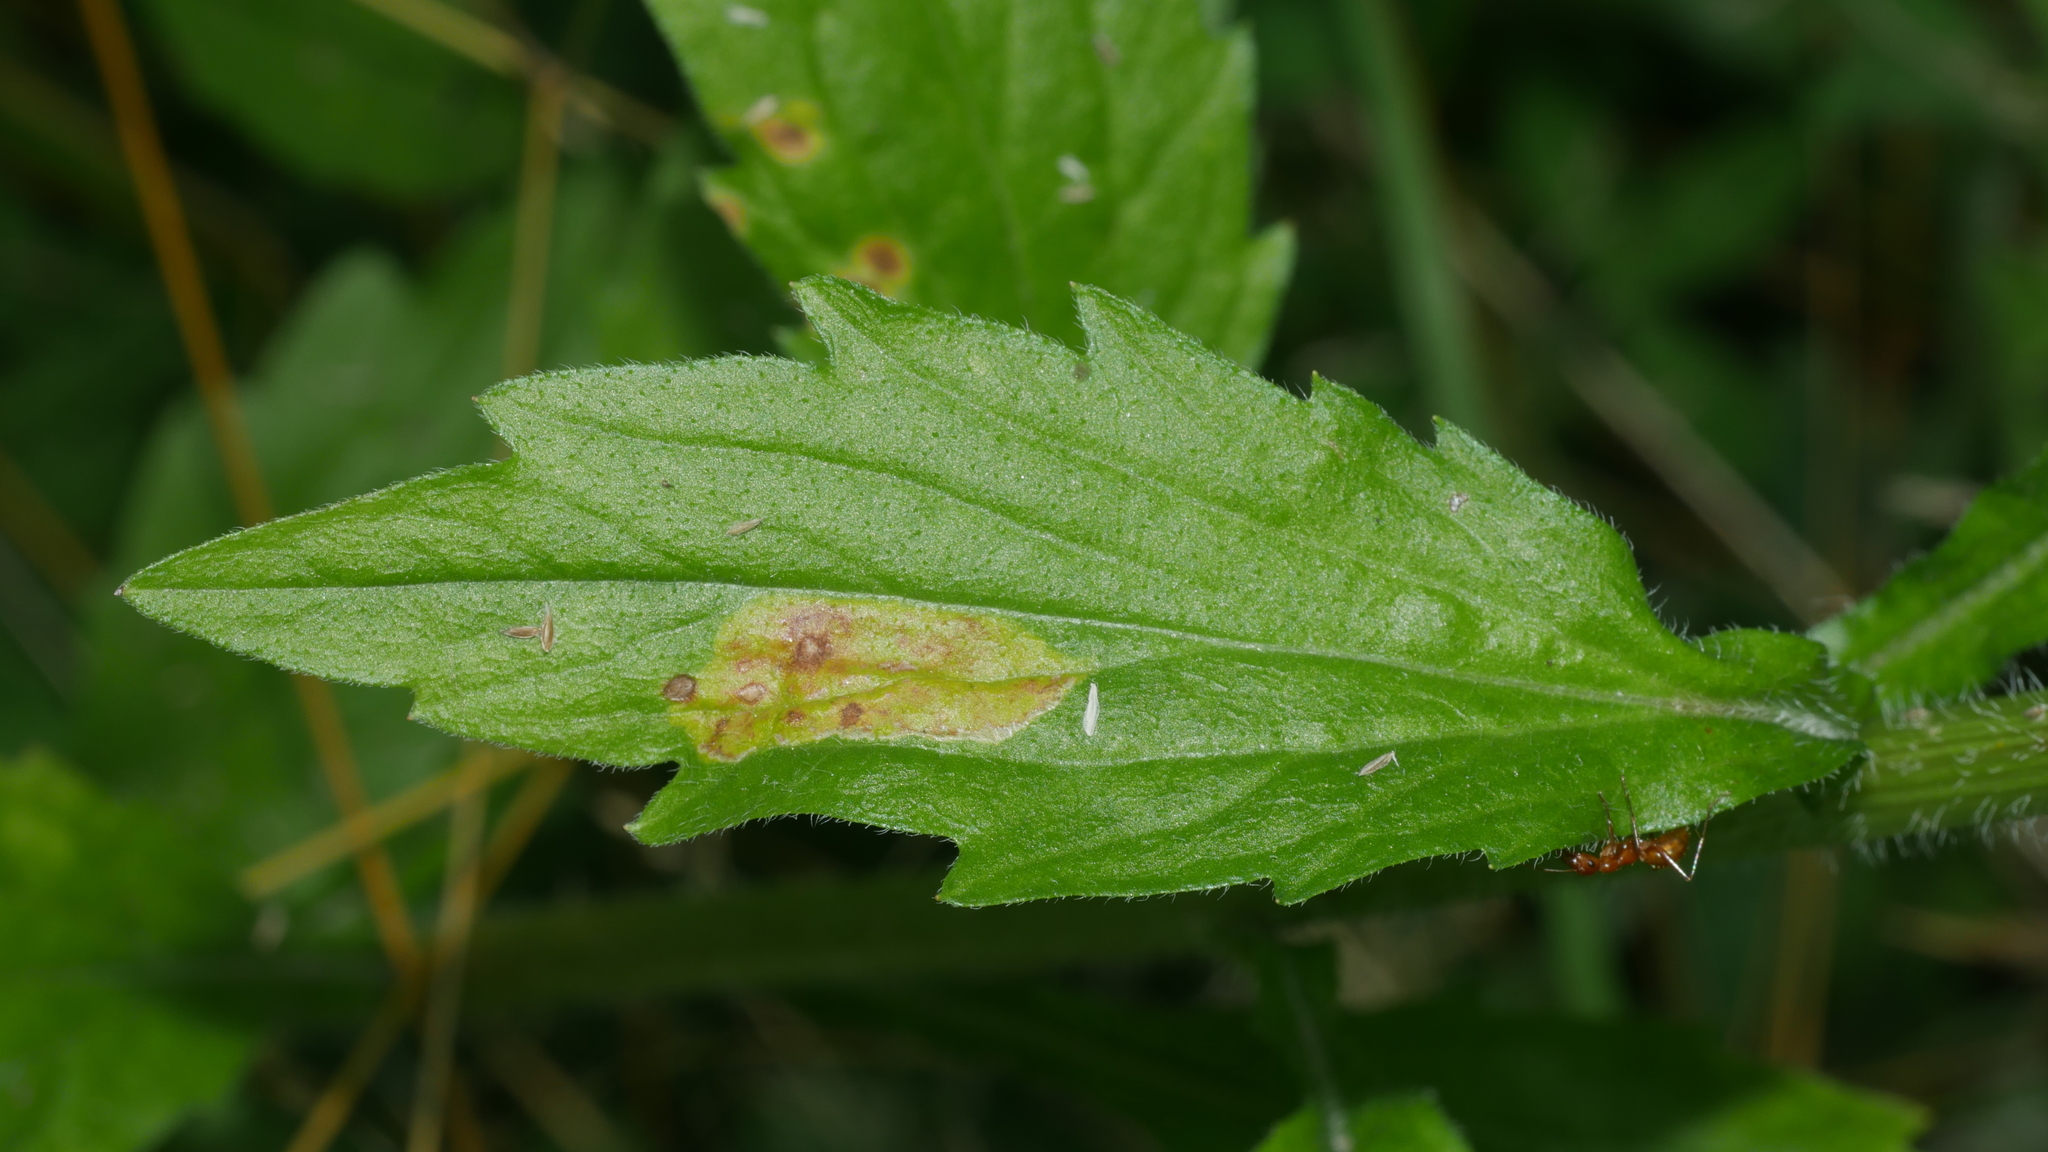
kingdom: Animalia
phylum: Arthropoda
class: Insecta
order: Lepidoptera
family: Gracillariidae
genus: Parectopa
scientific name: Parectopa plantaginisella
